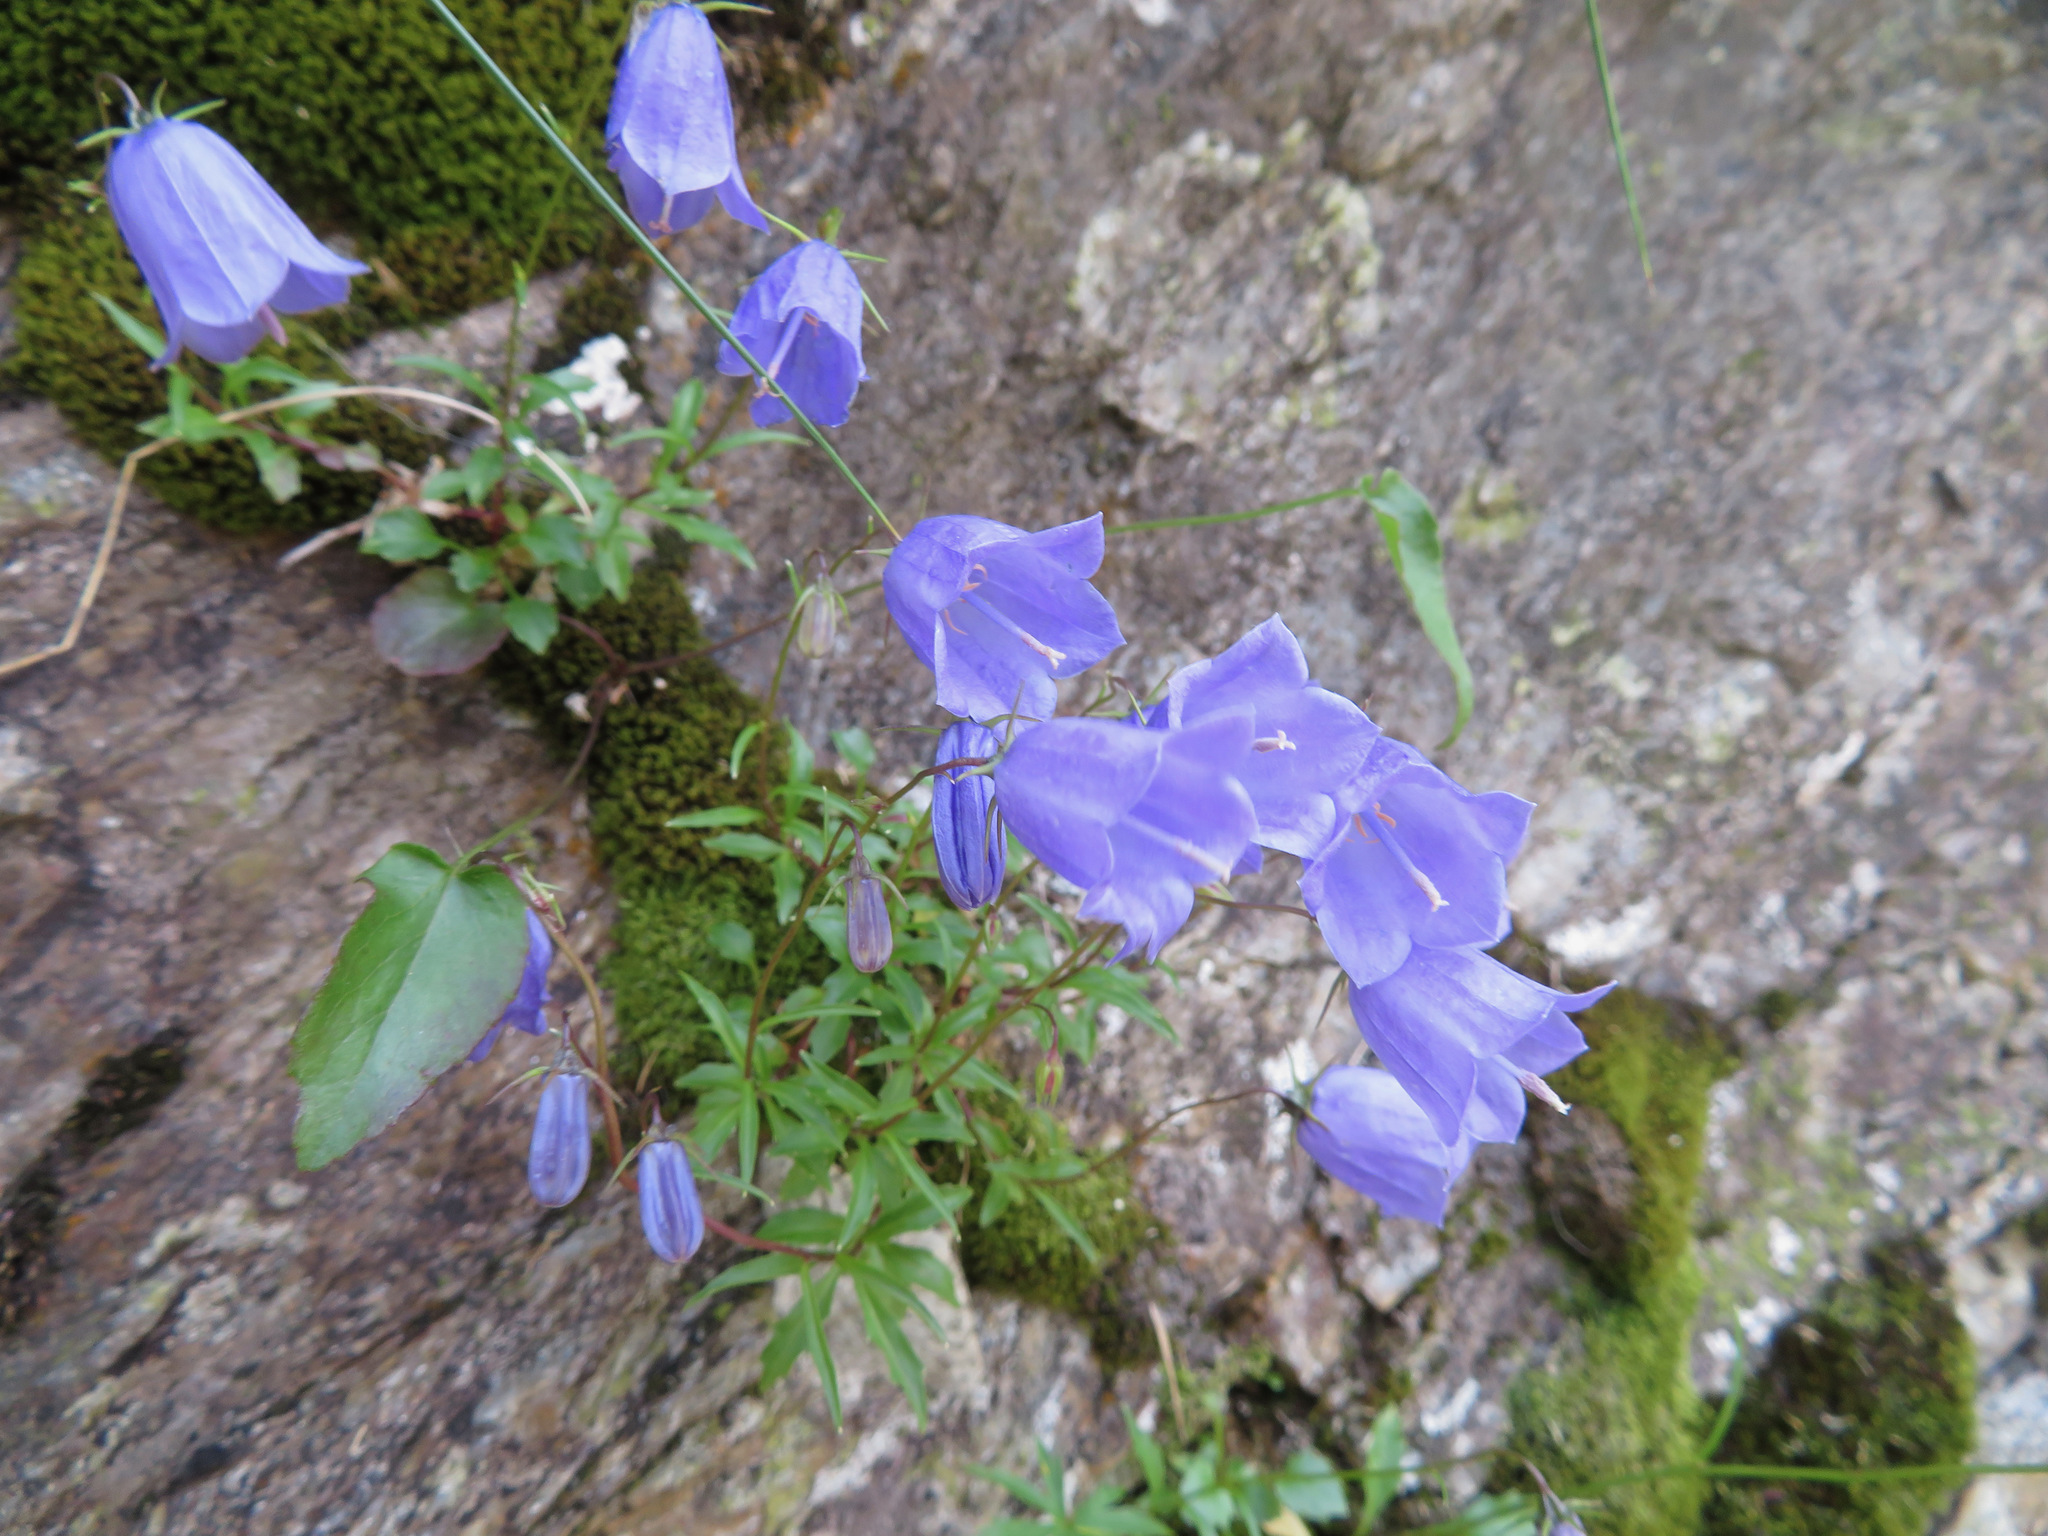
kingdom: Plantae
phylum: Tracheophyta
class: Magnoliopsida
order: Asterales
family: Campanulaceae
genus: Campanula
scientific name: Campanula cochleariifolia
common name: Fairies'-thimbles
